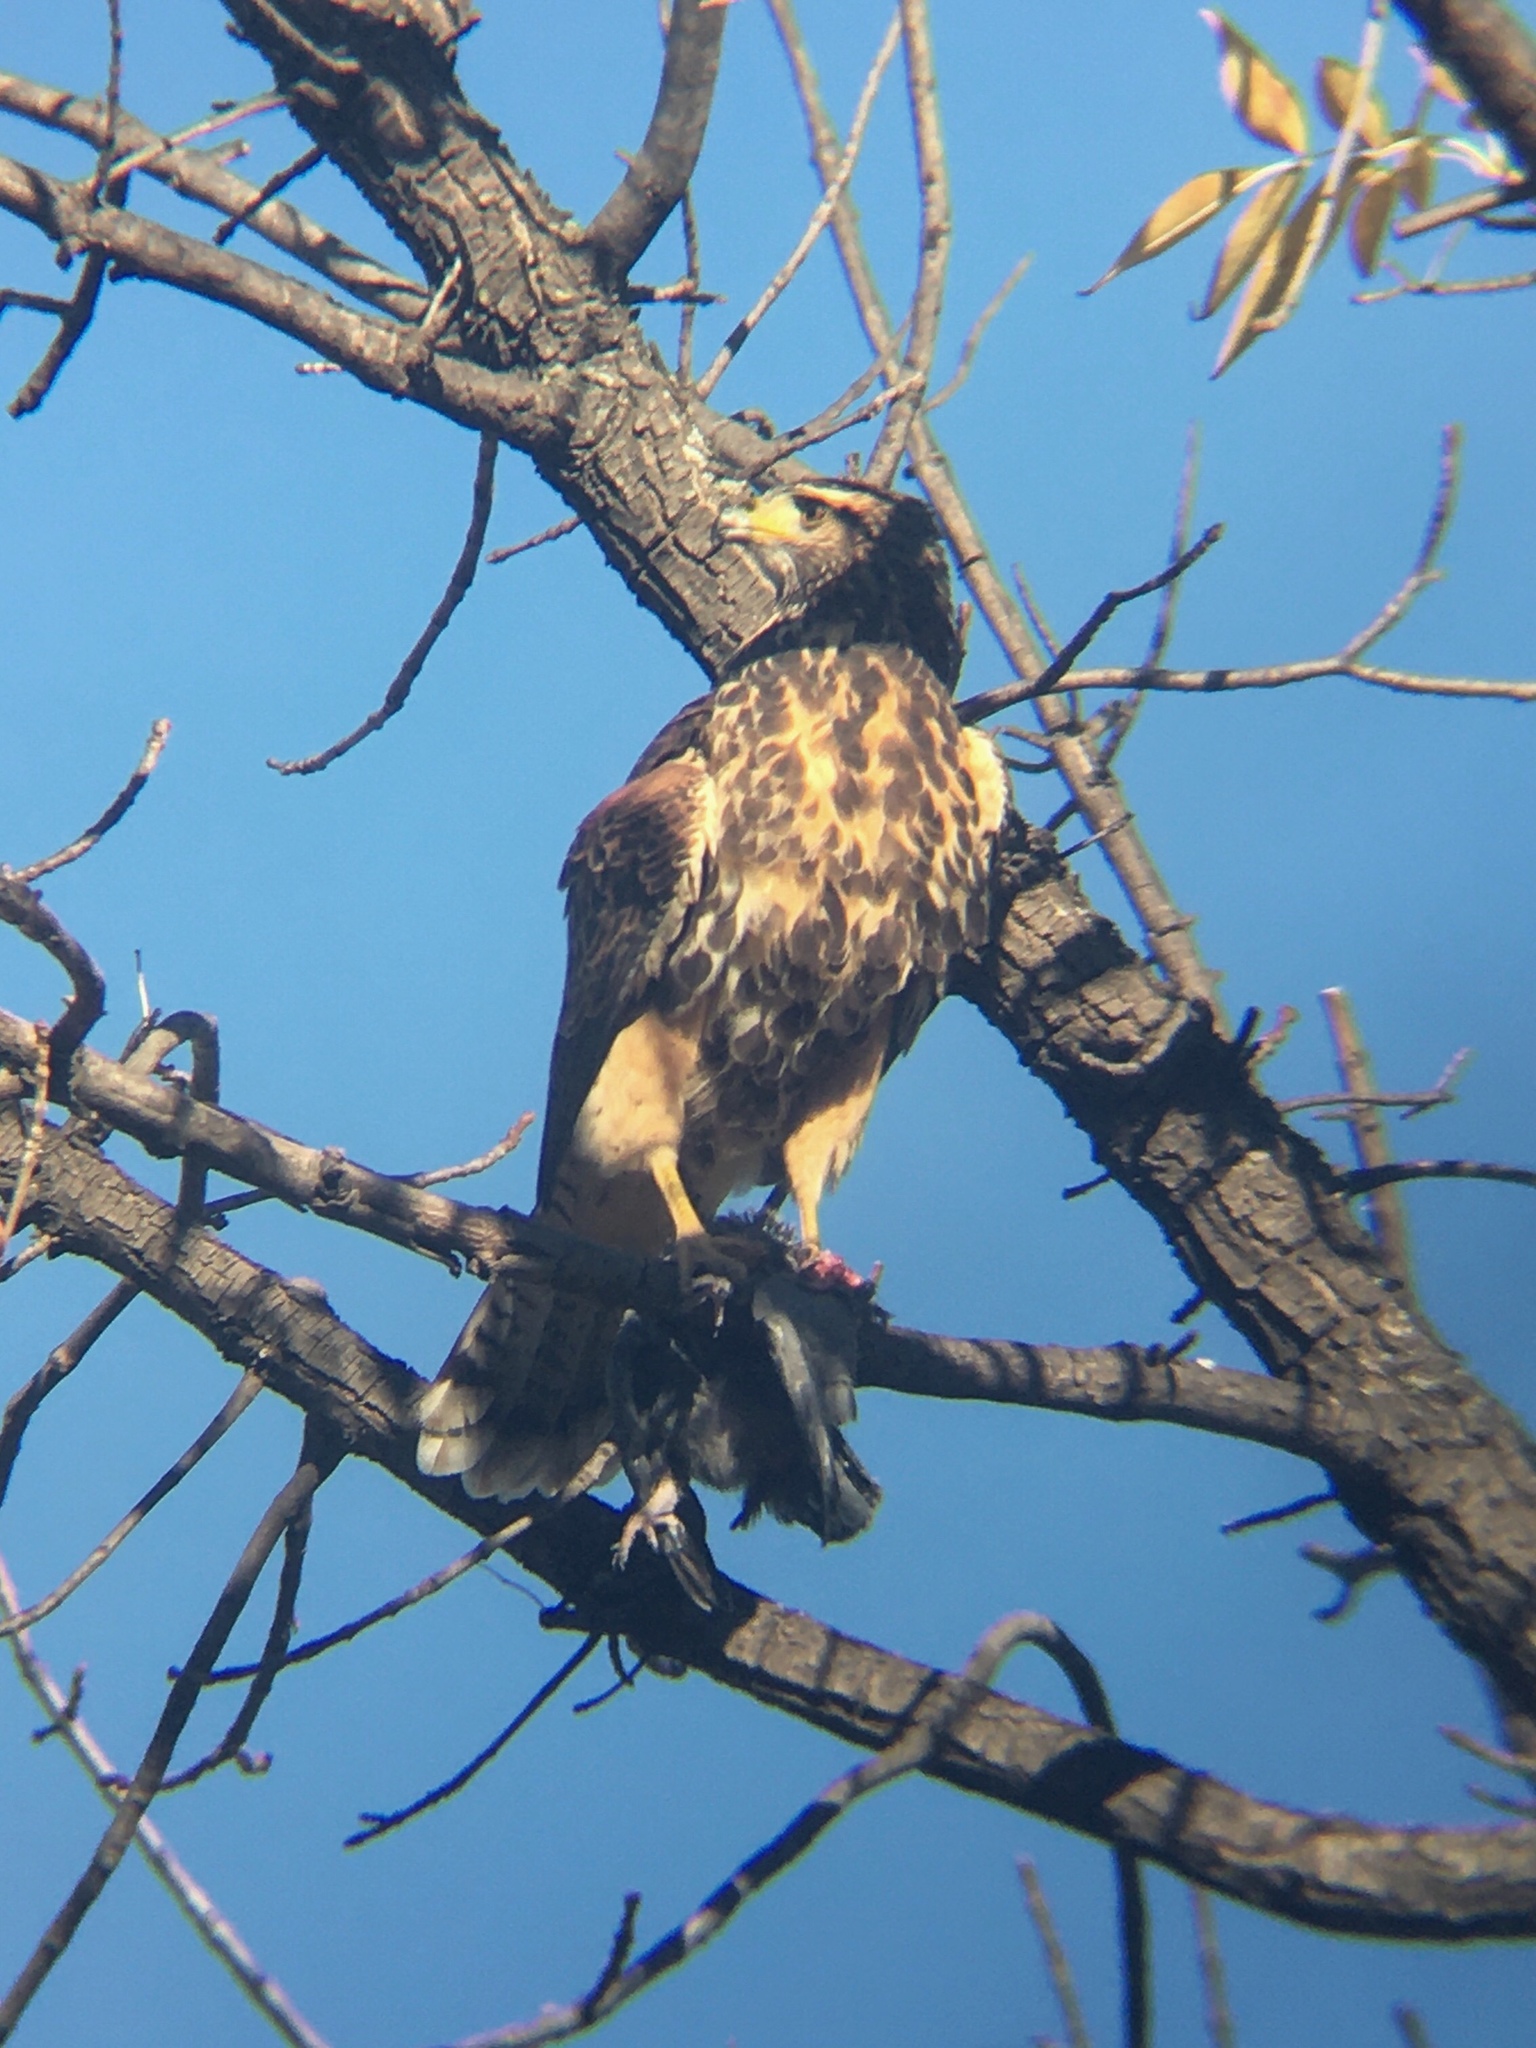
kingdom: Animalia
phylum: Chordata
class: Aves
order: Accipitriformes
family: Accipitridae
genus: Parabuteo
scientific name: Parabuteo unicinctus
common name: Harris's hawk
